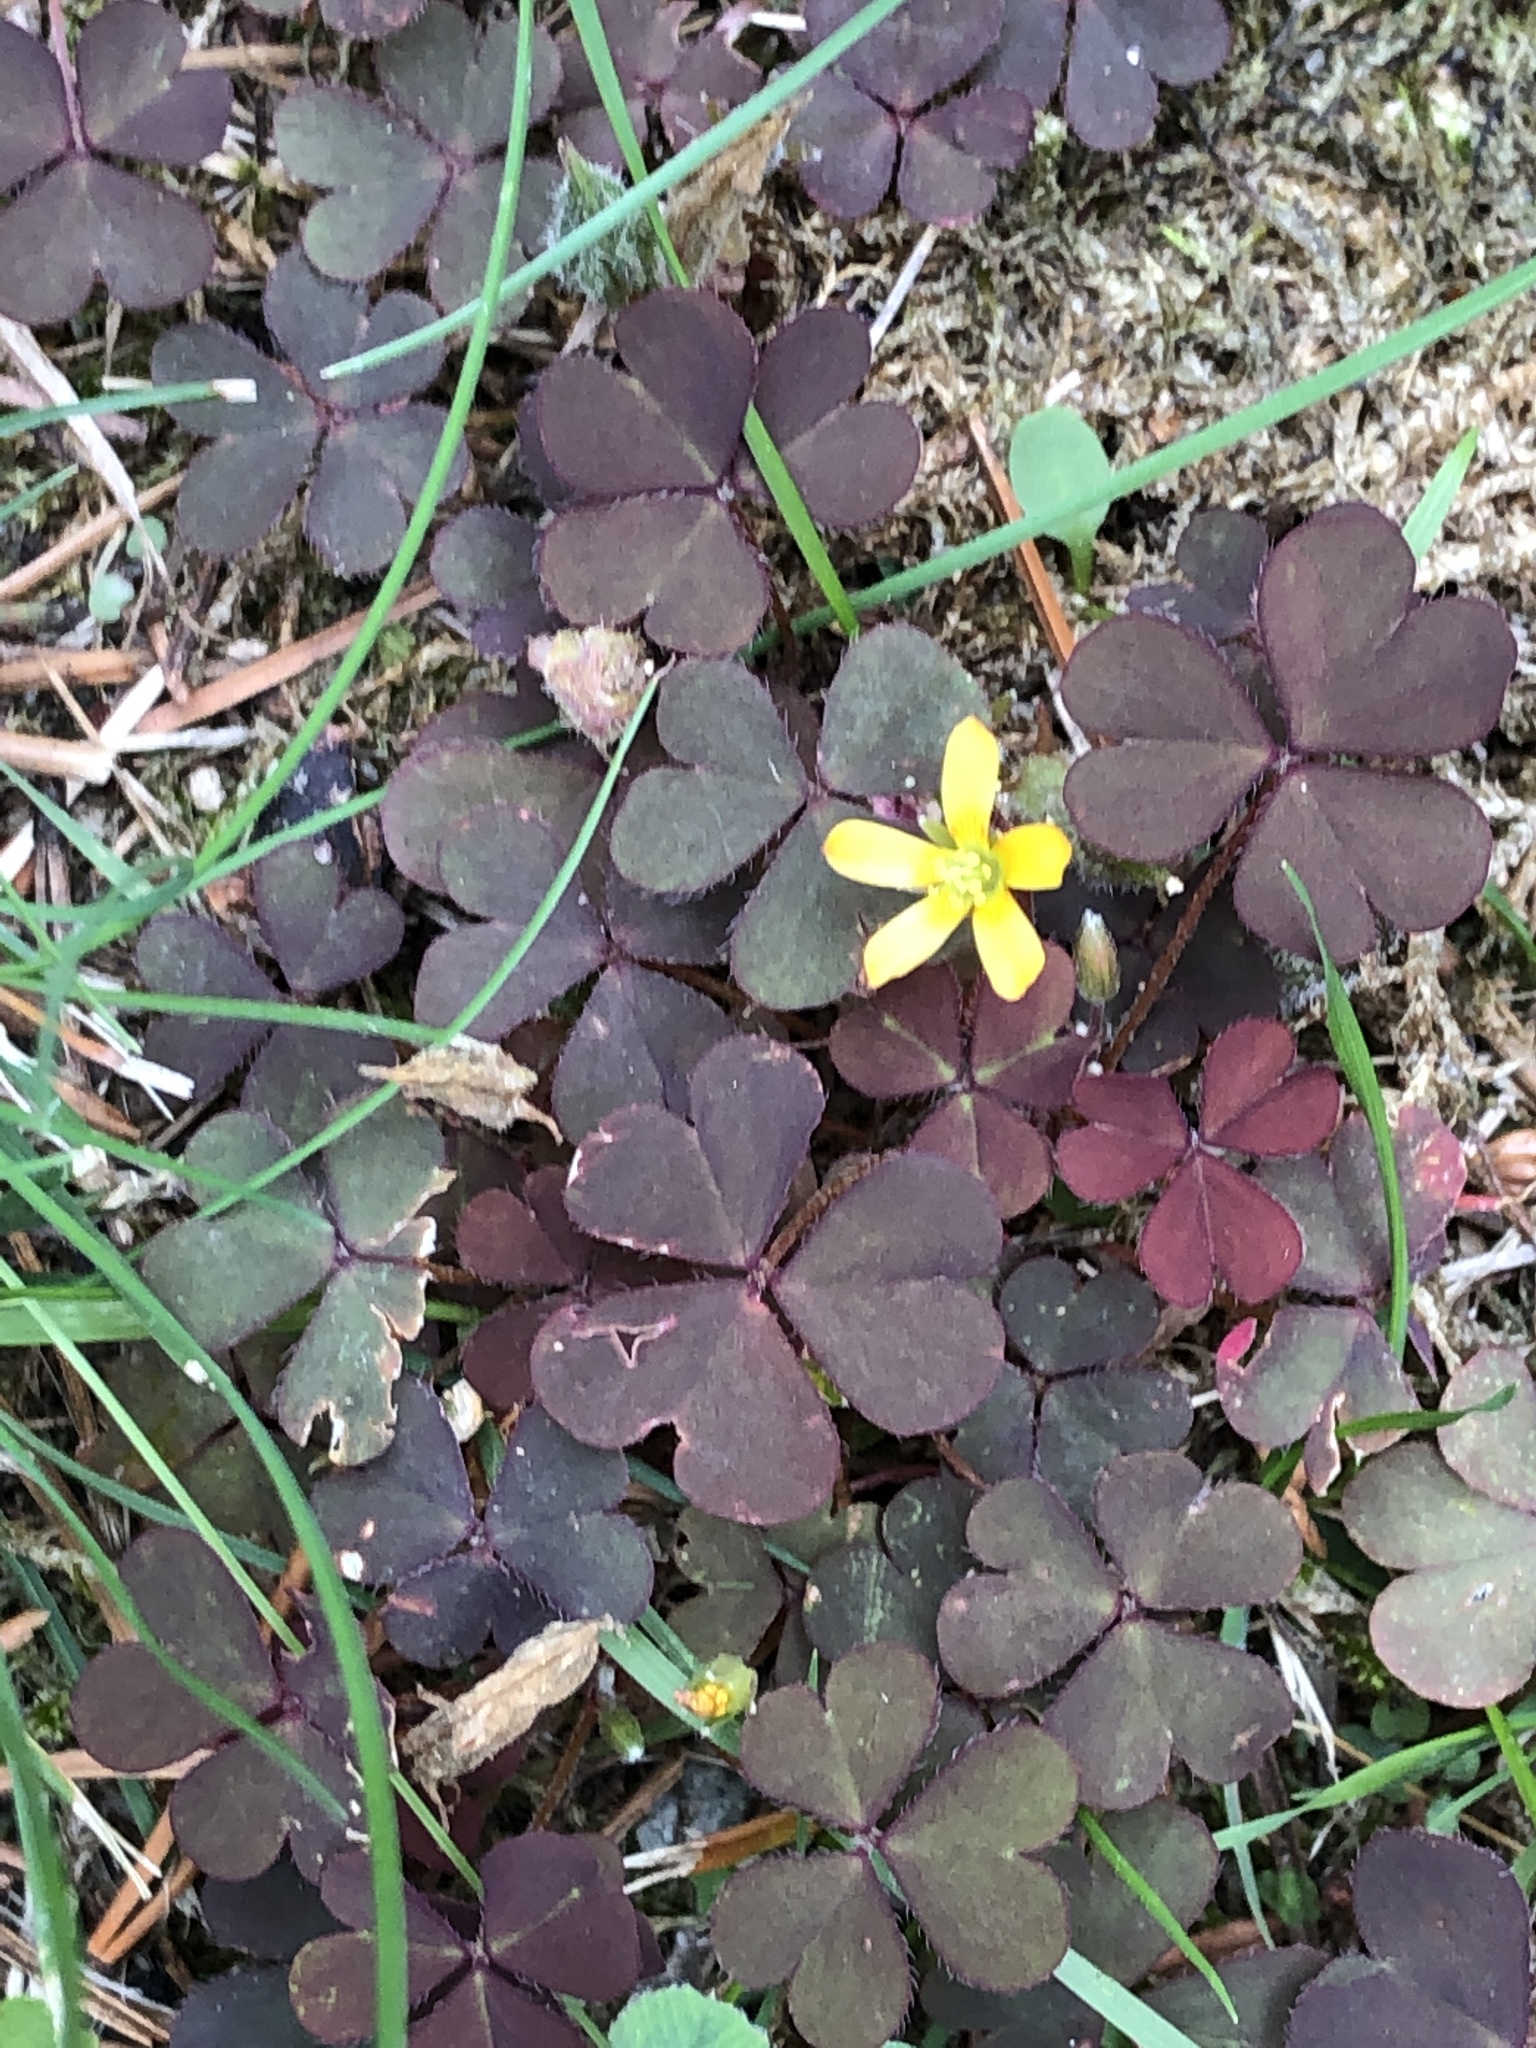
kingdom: Plantae
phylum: Tracheophyta
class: Magnoliopsida
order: Oxalidales
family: Oxalidaceae
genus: Oxalis
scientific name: Oxalis corniculata
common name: Procumbent yellow-sorrel
